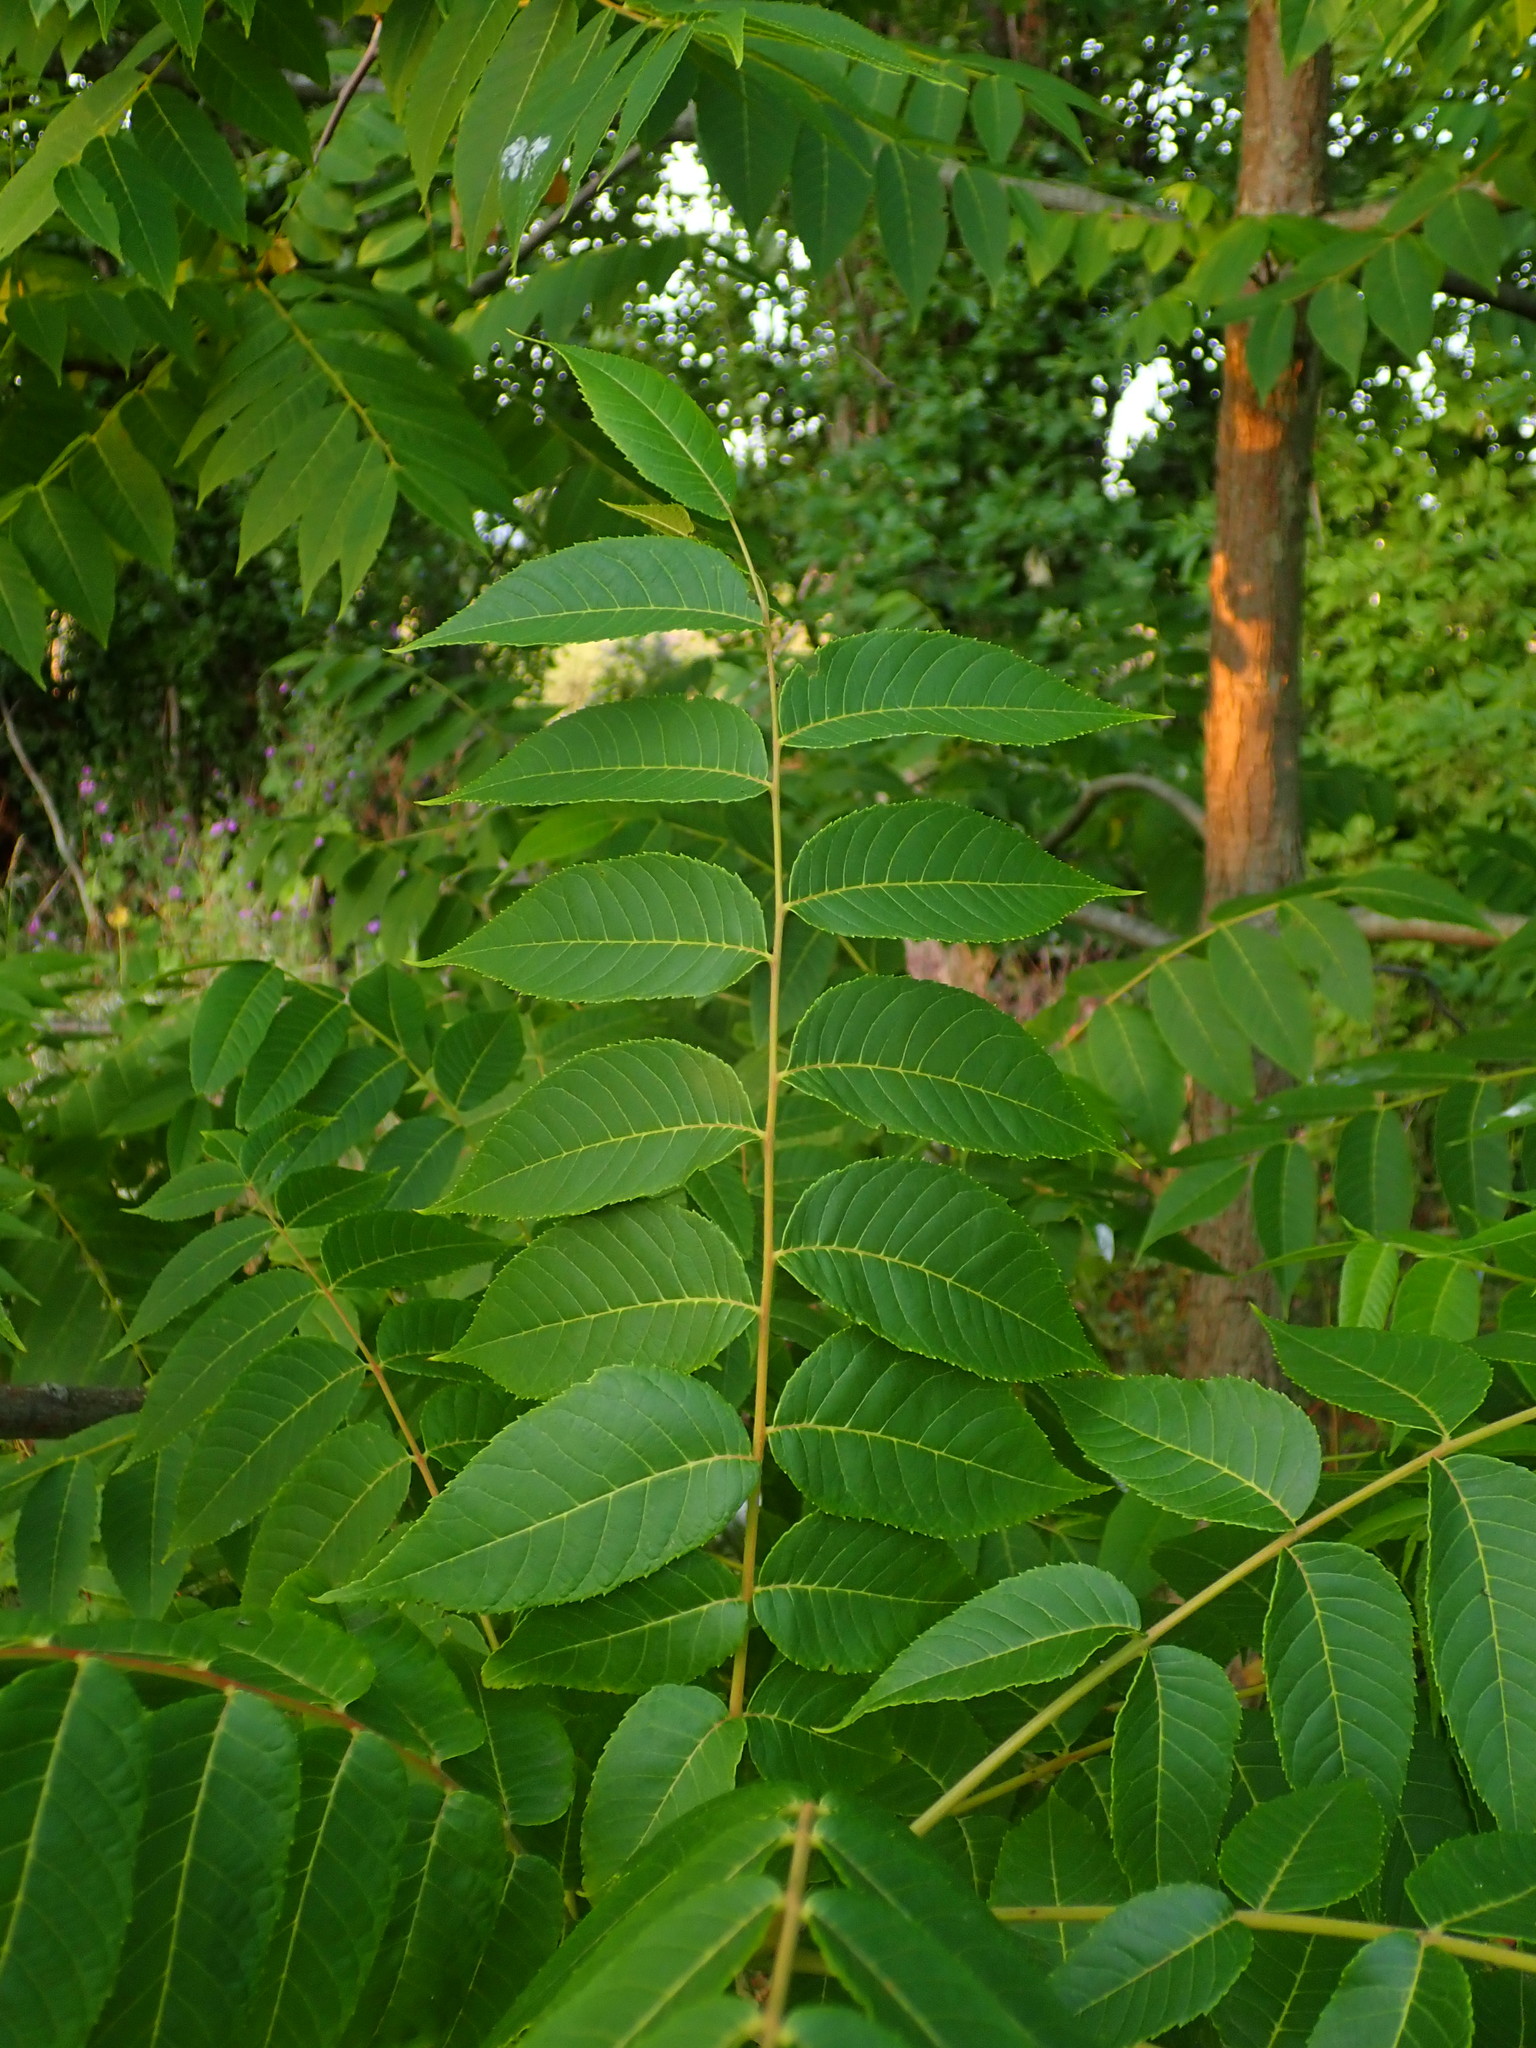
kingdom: Plantae
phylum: Tracheophyta
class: Magnoliopsida
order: Fagales
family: Juglandaceae
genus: Juglans
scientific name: Juglans nigra
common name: Black walnut
